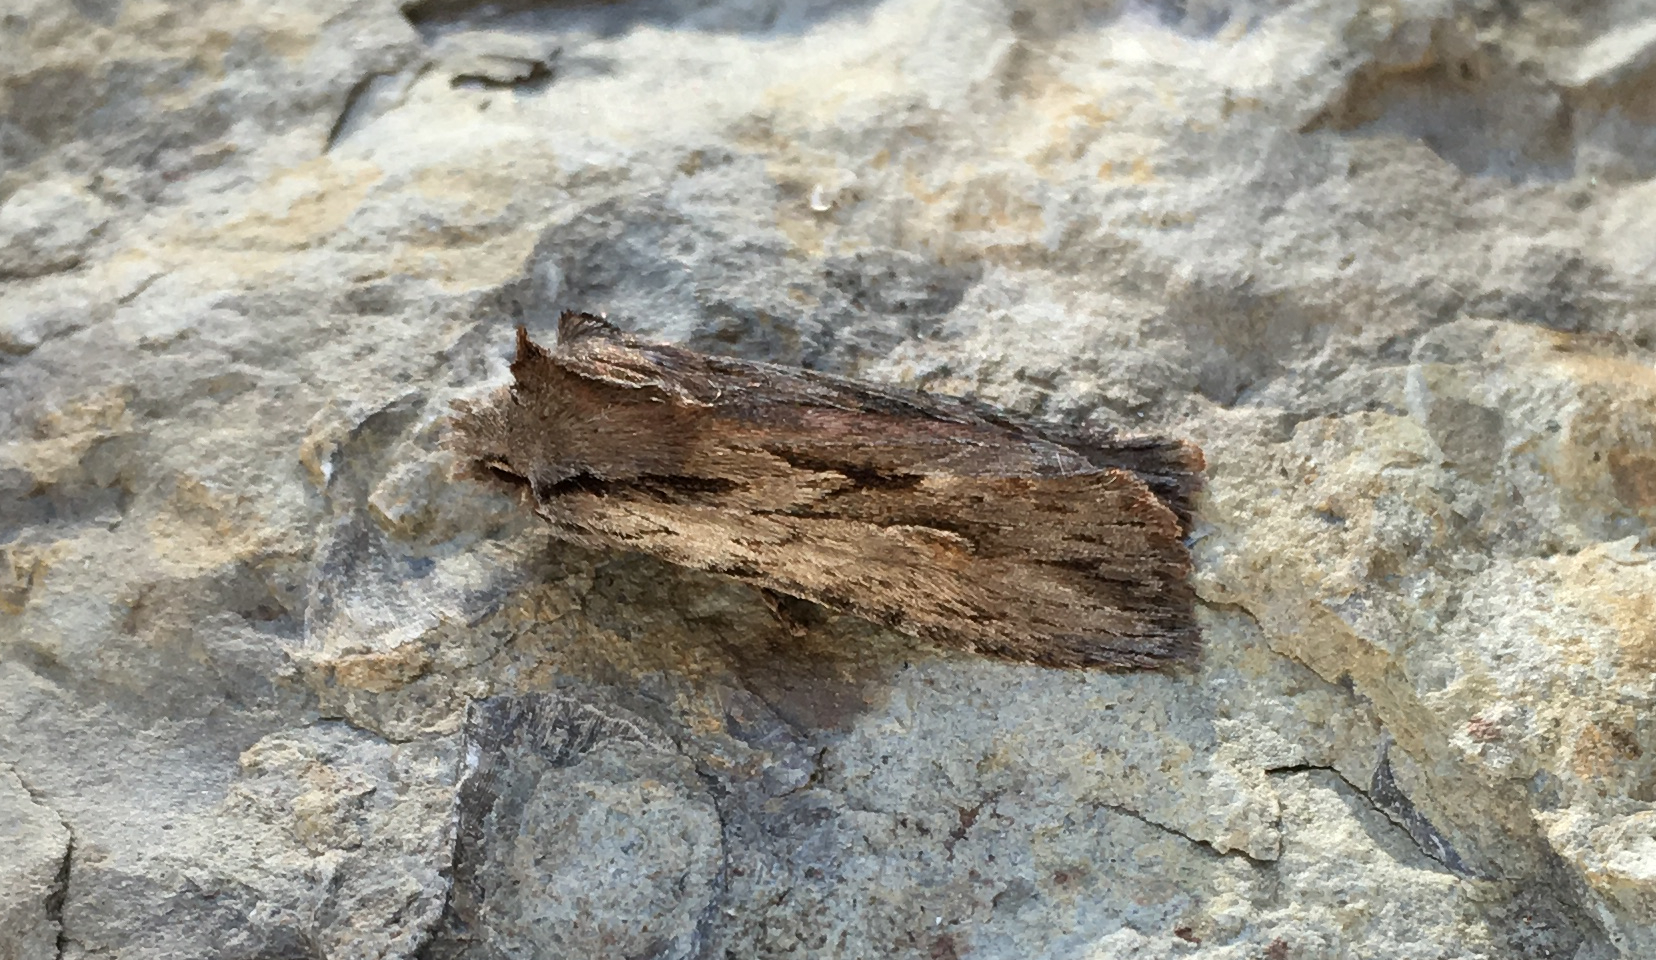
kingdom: Animalia
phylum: Arthropoda
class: Insecta
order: Lepidoptera
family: Noctuidae
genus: Lithophane
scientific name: Lithophane thujae
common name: Cedar pinion moth
